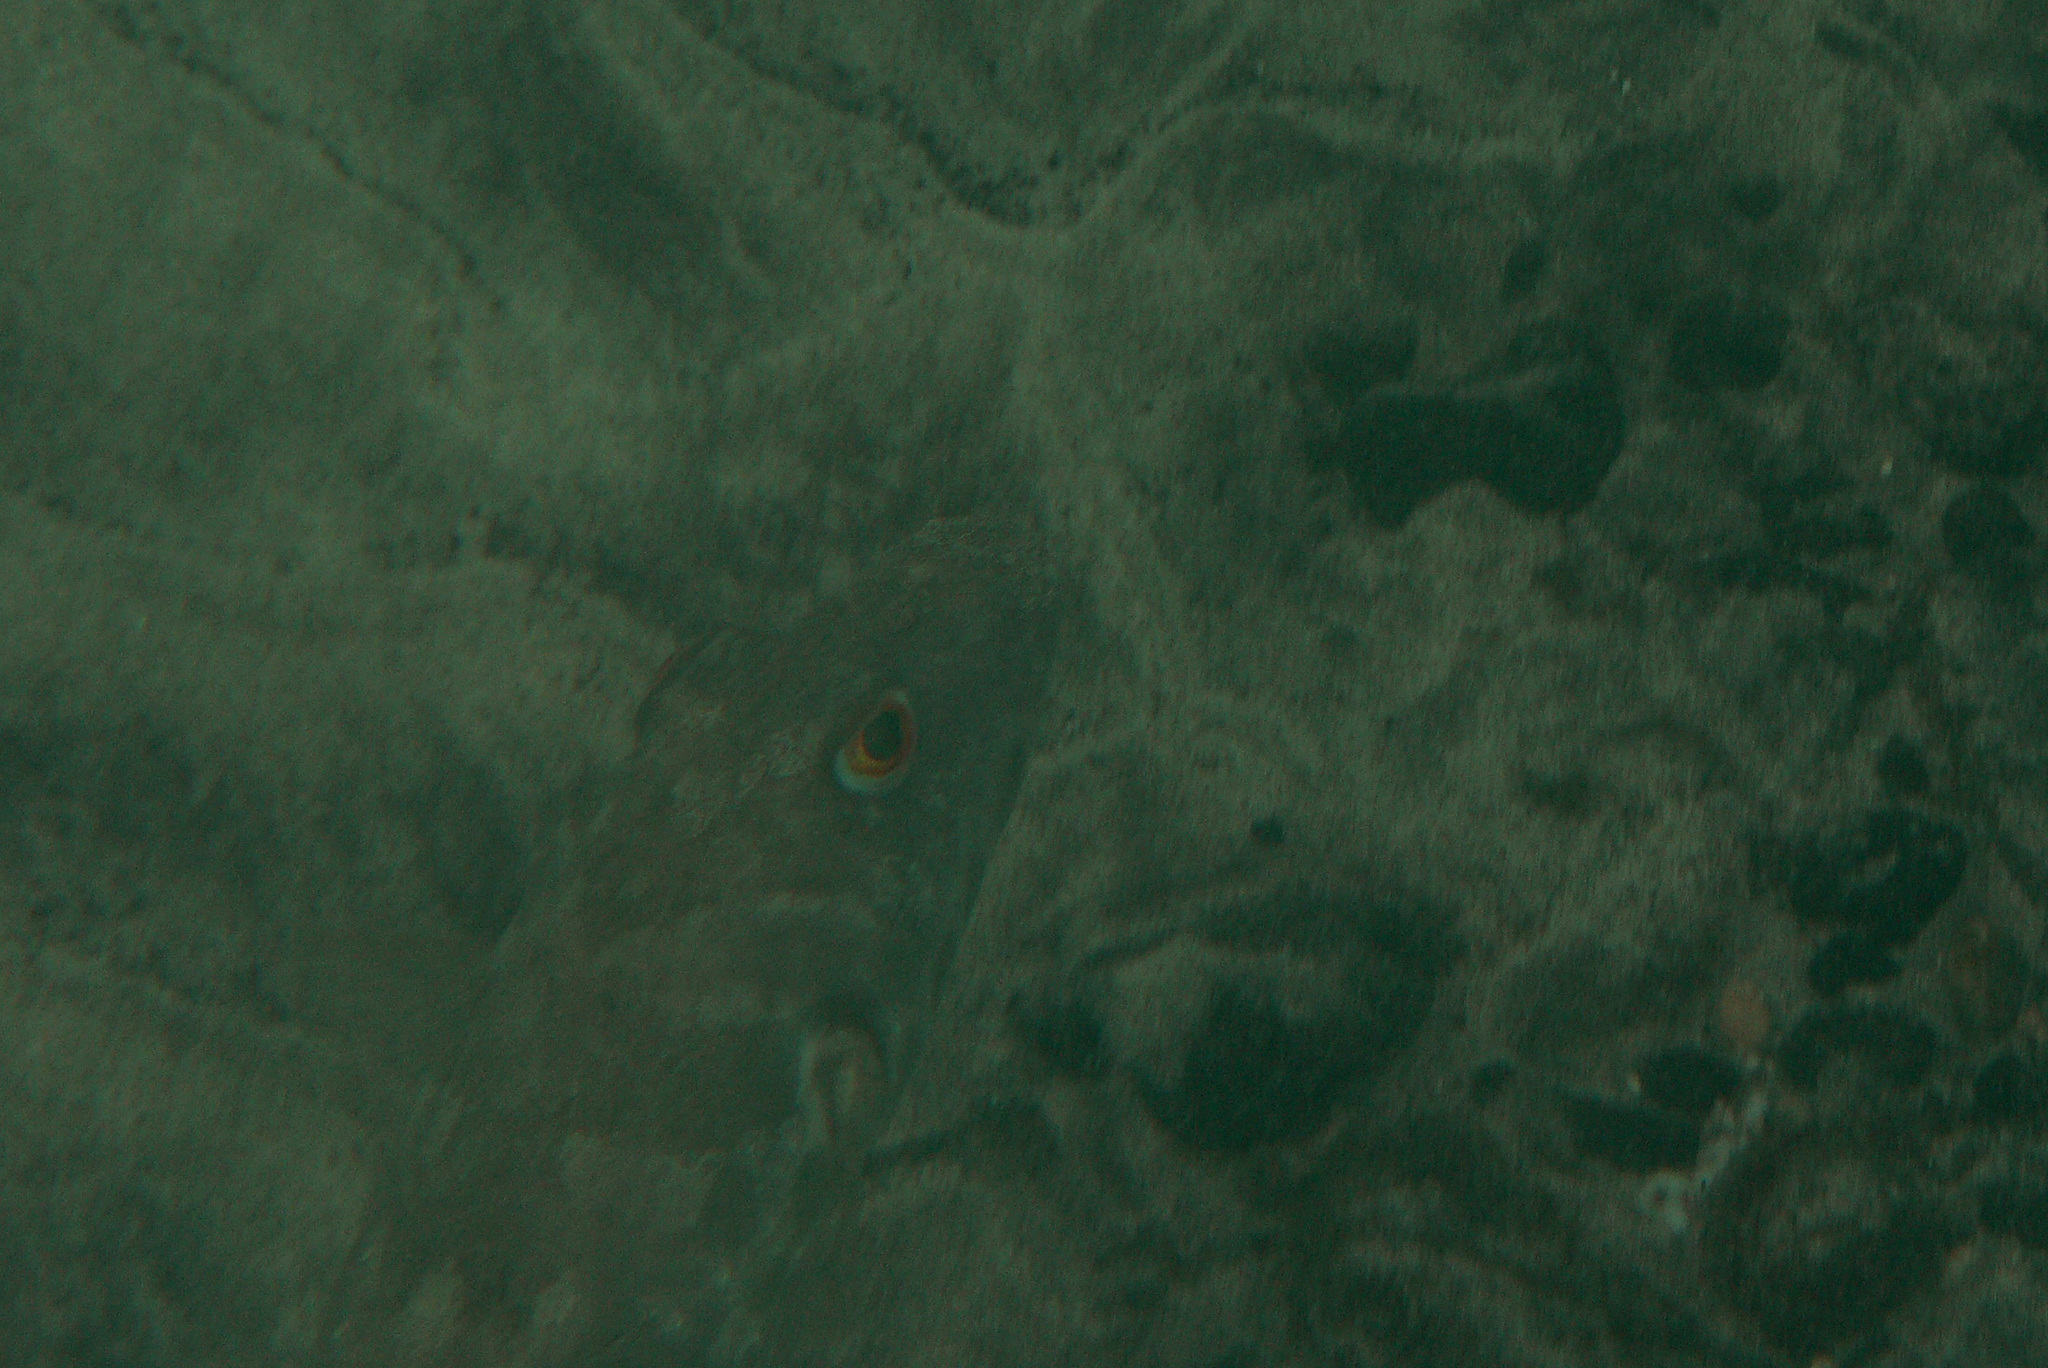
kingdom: Animalia
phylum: Chordata
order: Tetraodontiformes
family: Tetraodontidae
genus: Sphoeroides
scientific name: Sphoeroides marmoratus
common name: Guinean puffer
